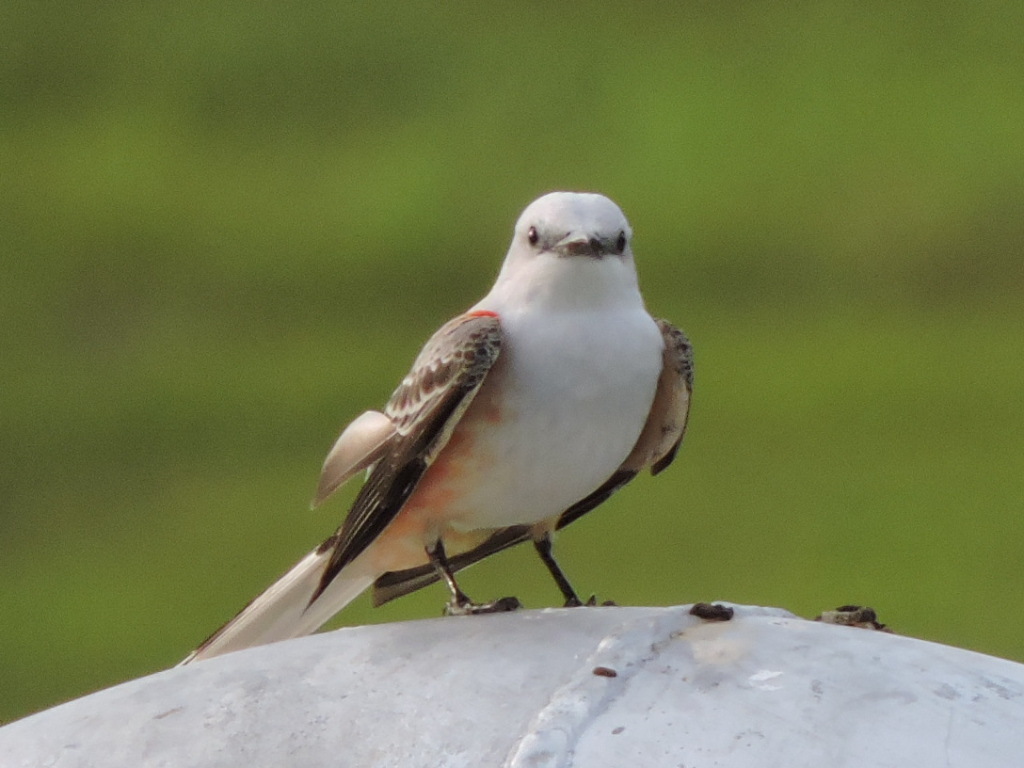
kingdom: Animalia
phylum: Chordata
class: Aves
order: Passeriformes
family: Tyrannidae
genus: Tyrannus
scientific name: Tyrannus forficatus
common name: Scissor-tailed flycatcher
